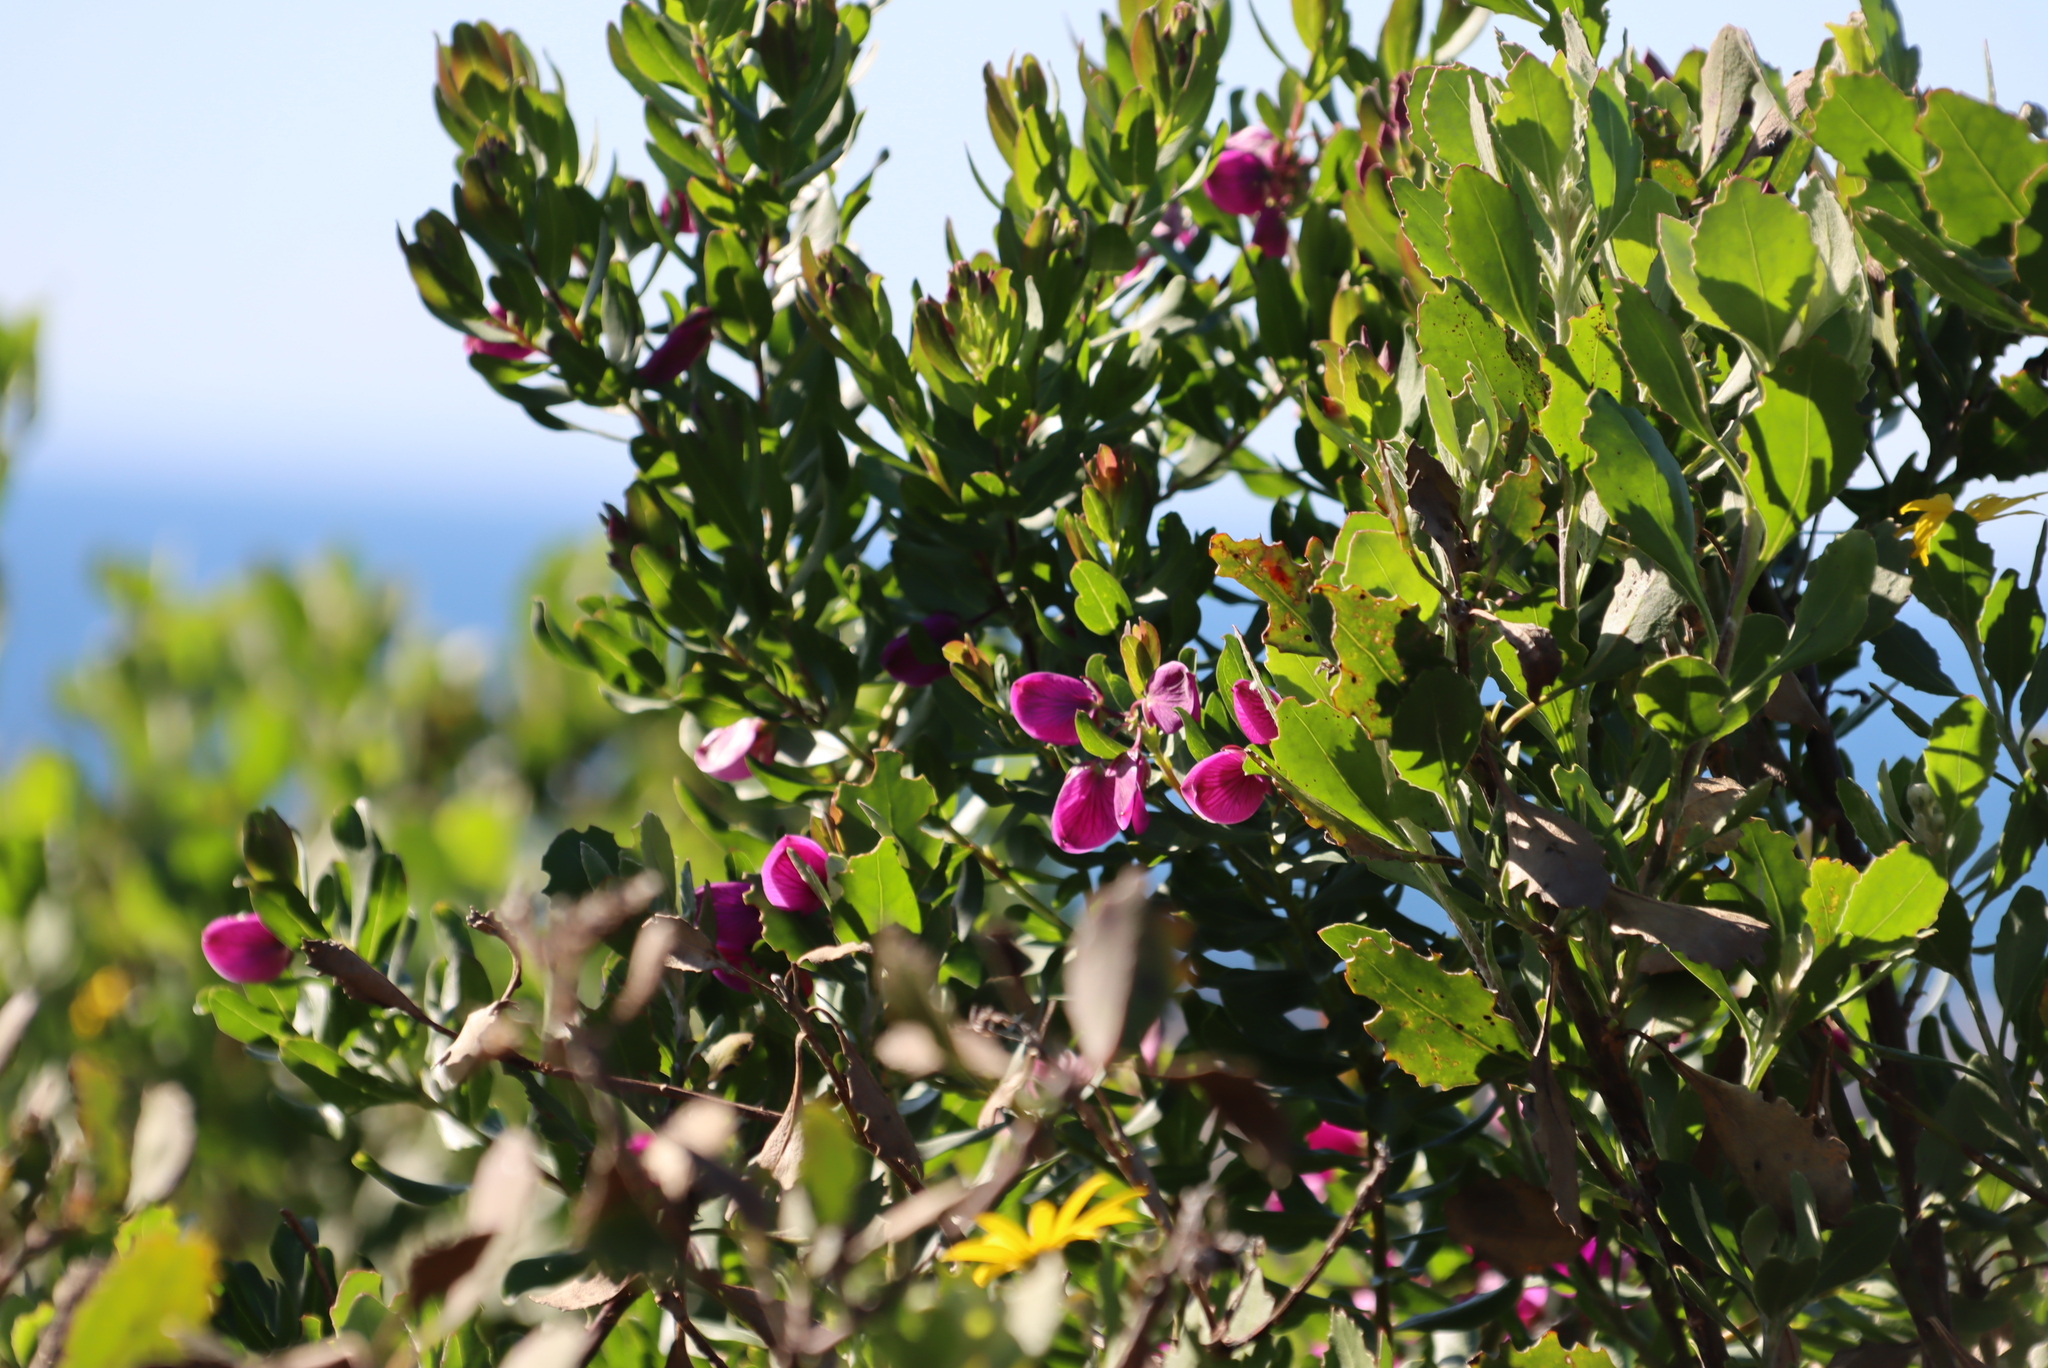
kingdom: Plantae
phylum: Tracheophyta
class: Magnoliopsida
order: Fabales
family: Polygalaceae
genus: Polygala
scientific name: Polygala myrtifolia
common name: Myrtle-leaf milkwort
